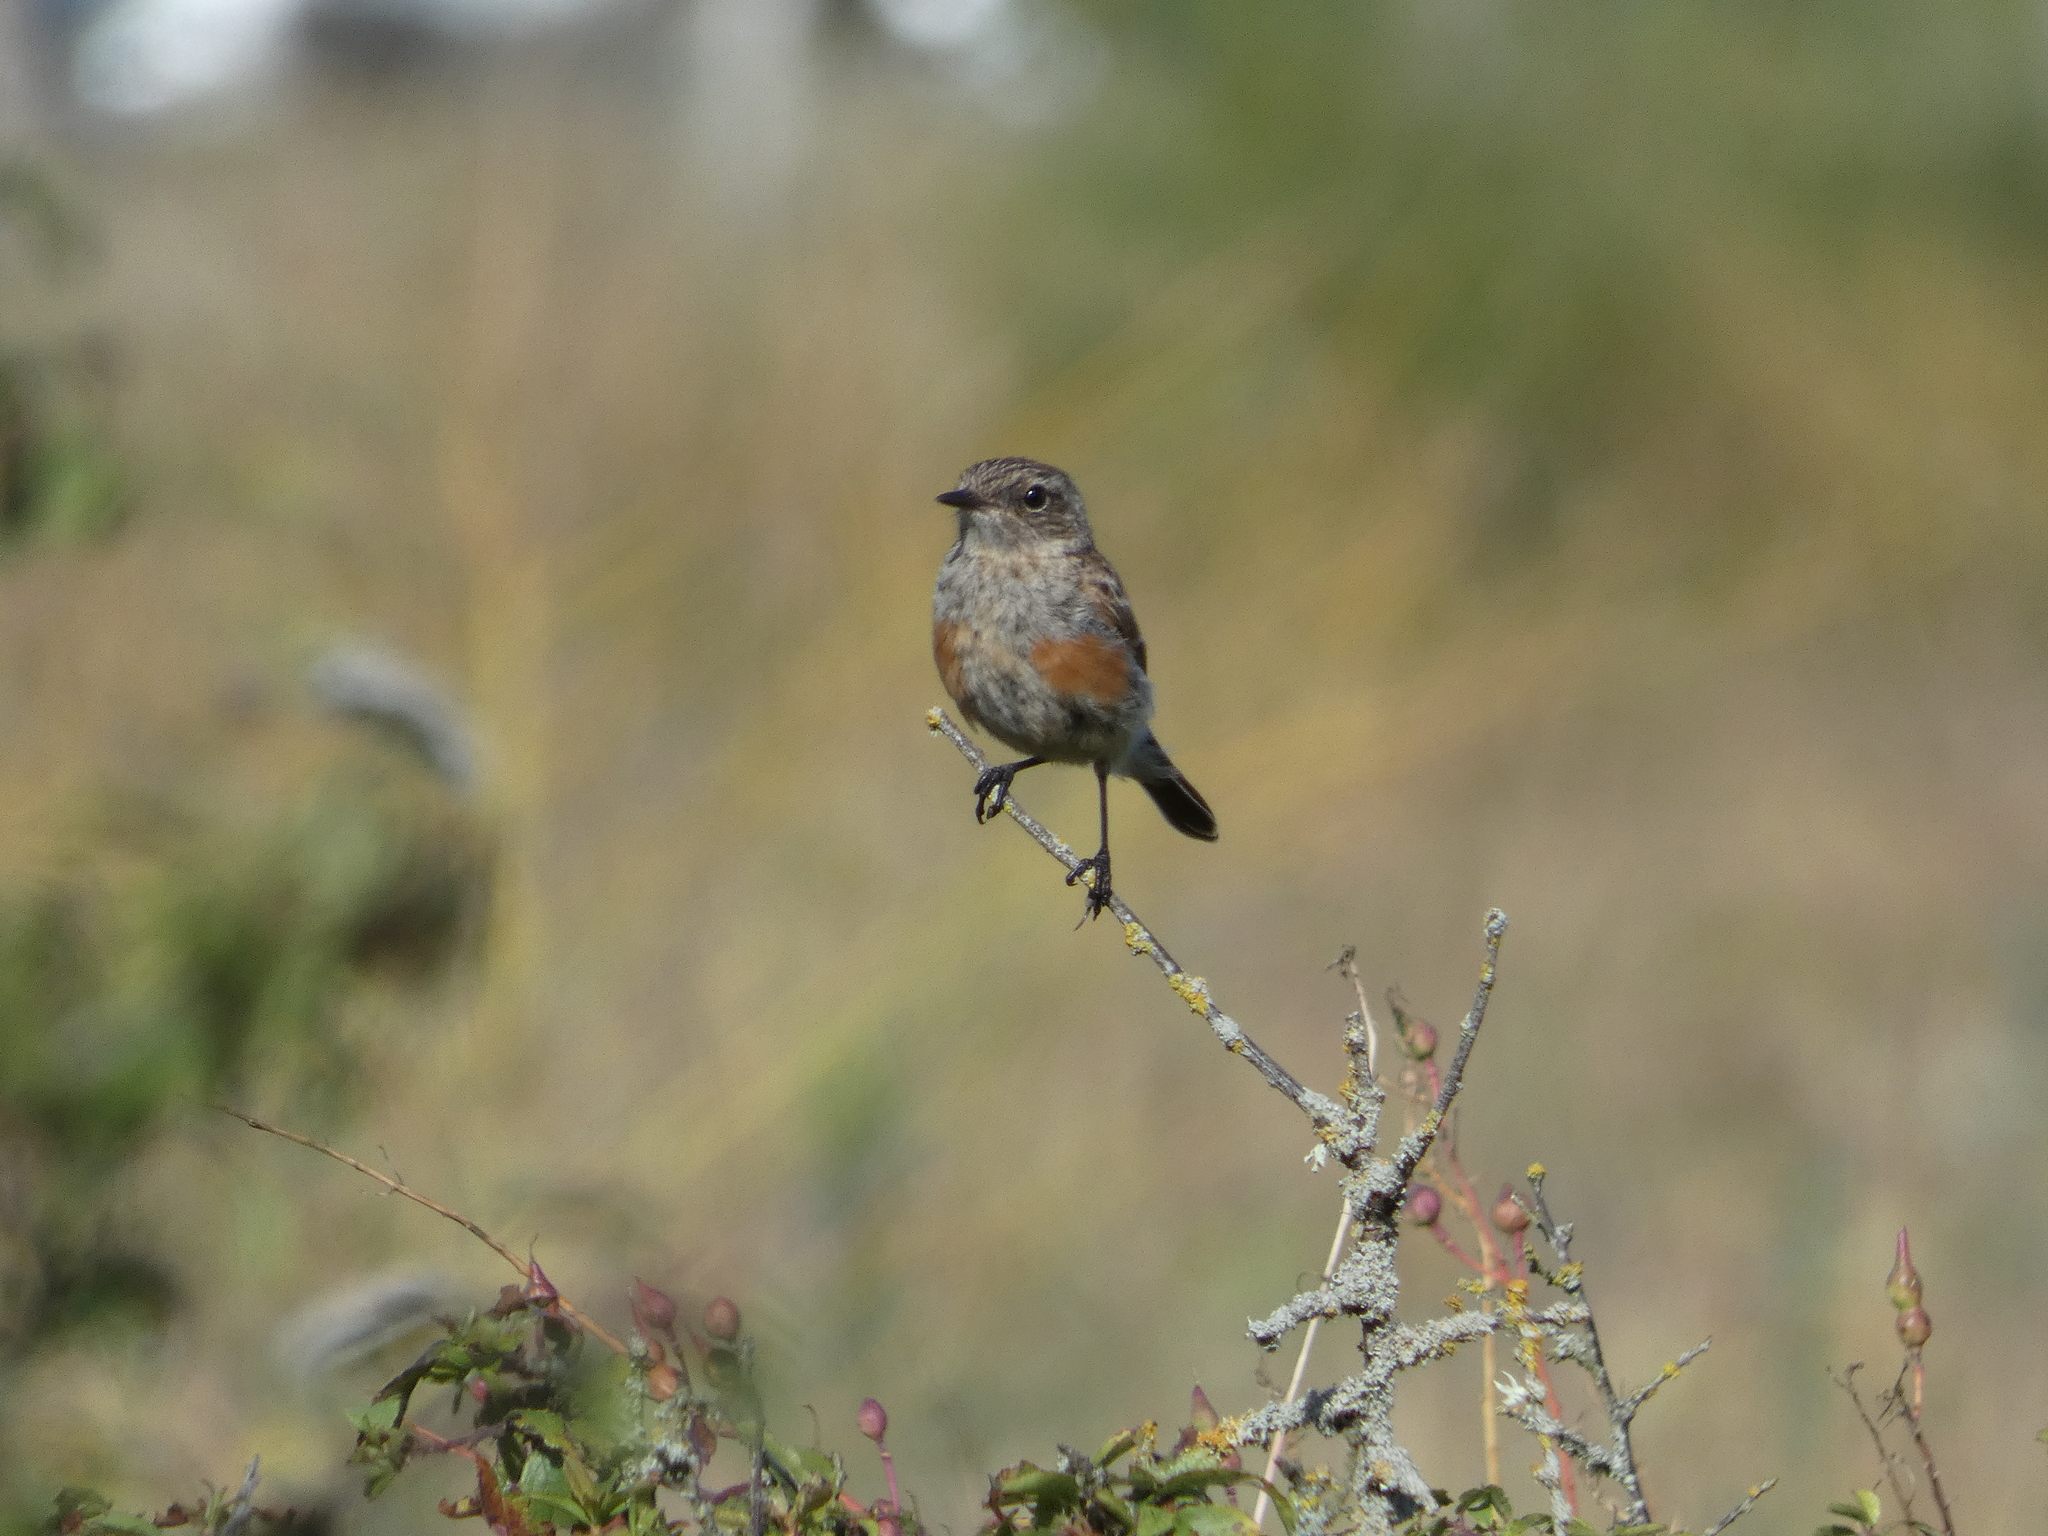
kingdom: Animalia
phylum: Chordata
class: Aves
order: Passeriformes
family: Muscicapidae
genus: Saxicola
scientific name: Saxicola rubicola
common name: European stonechat
